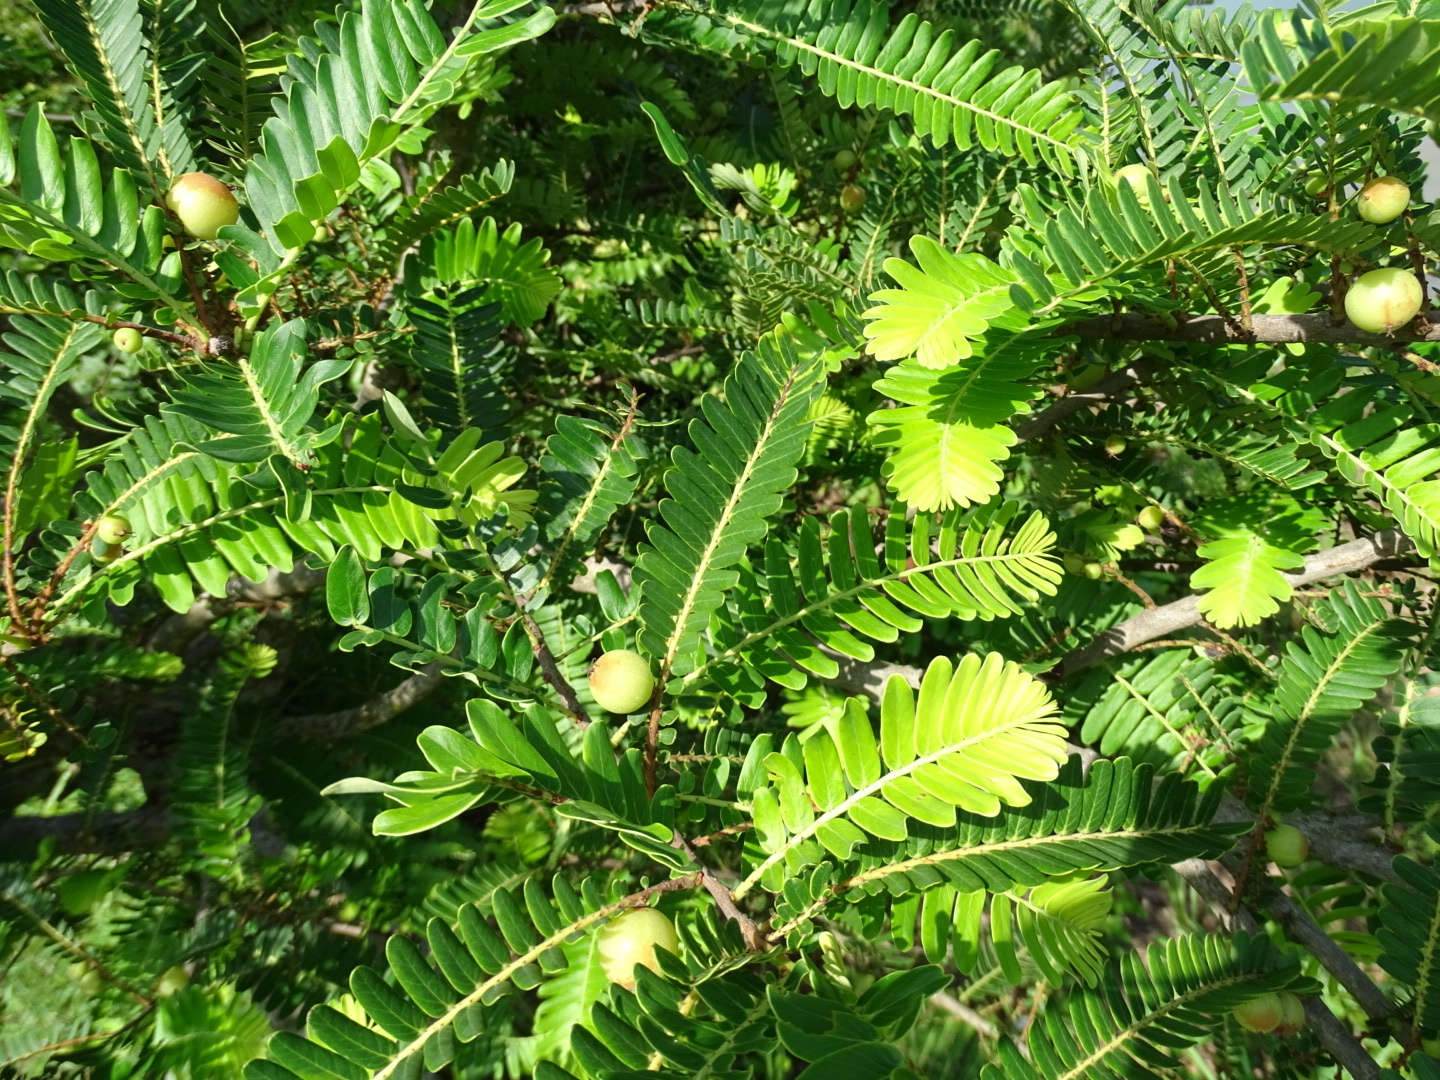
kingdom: Plantae
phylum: Tracheophyta
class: Magnoliopsida
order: Malpighiales
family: Phyllanthaceae
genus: Phyllanthus
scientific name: Phyllanthus emblica
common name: Indian gooseberry
